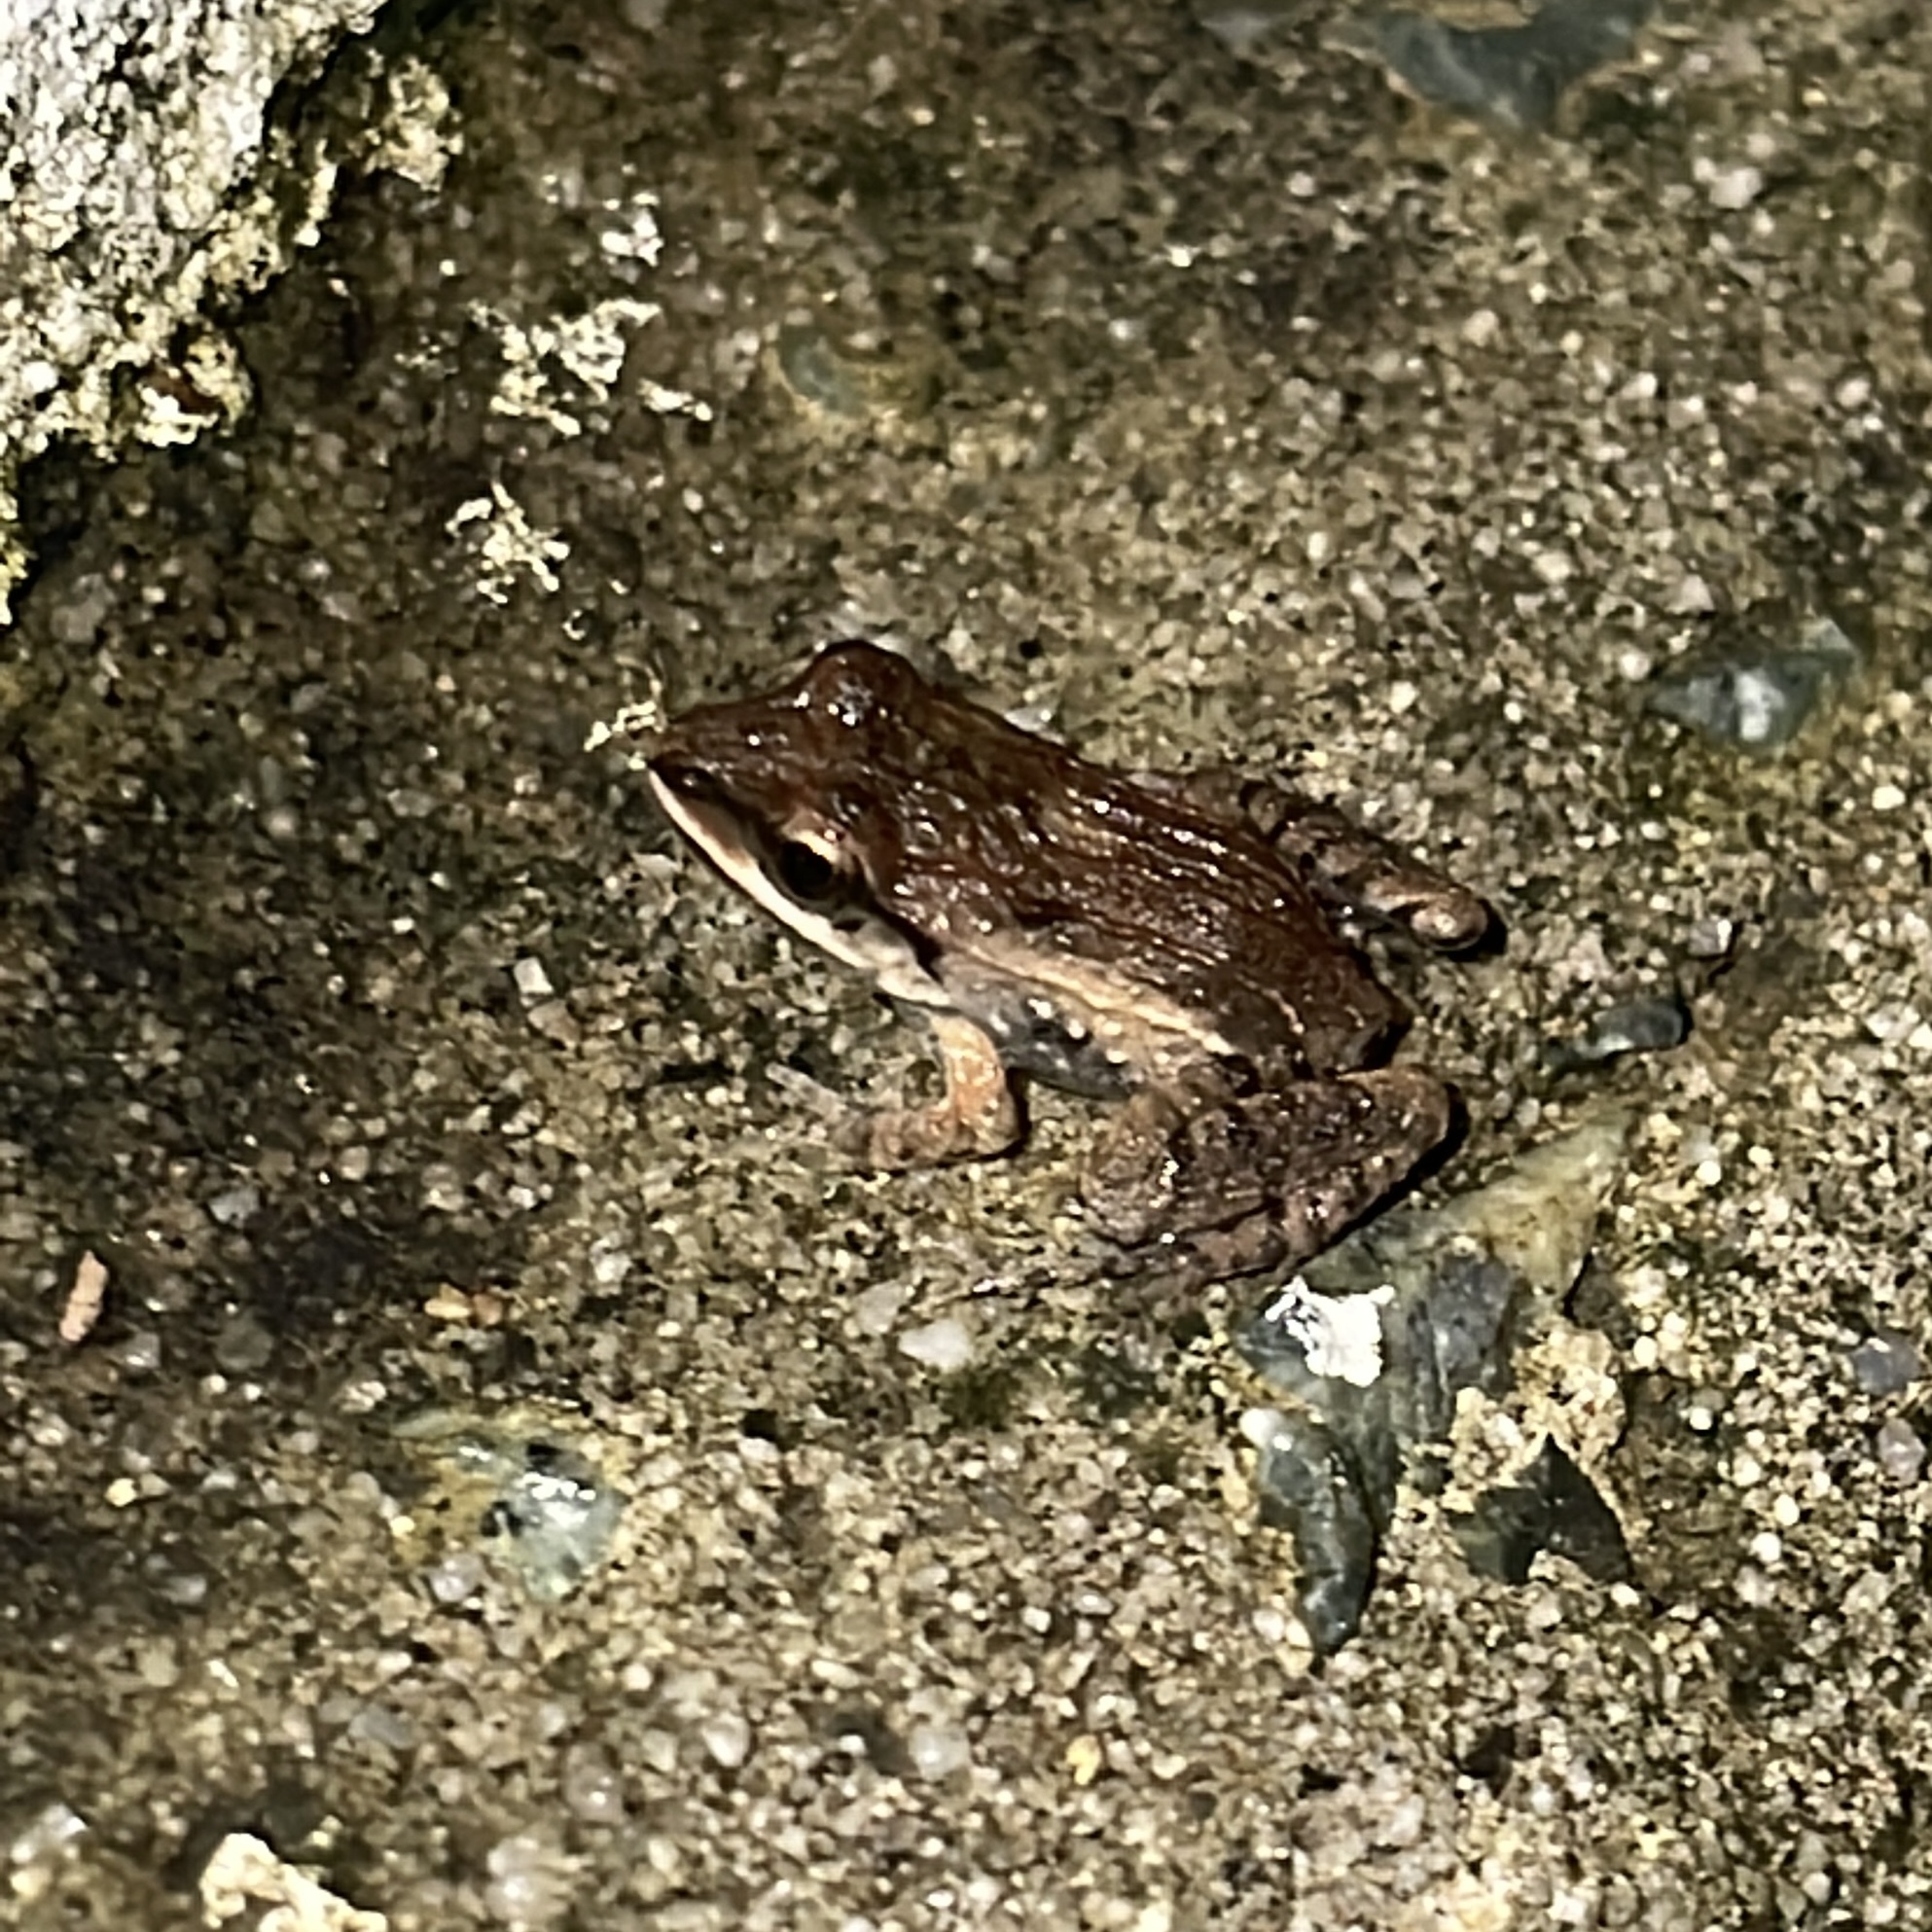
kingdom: Animalia
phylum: Chordata
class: Amphibia
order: Anura
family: Leptodactylidae
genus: Leptodactylus
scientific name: Leptodactylus fuscus
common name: Rufous frog
